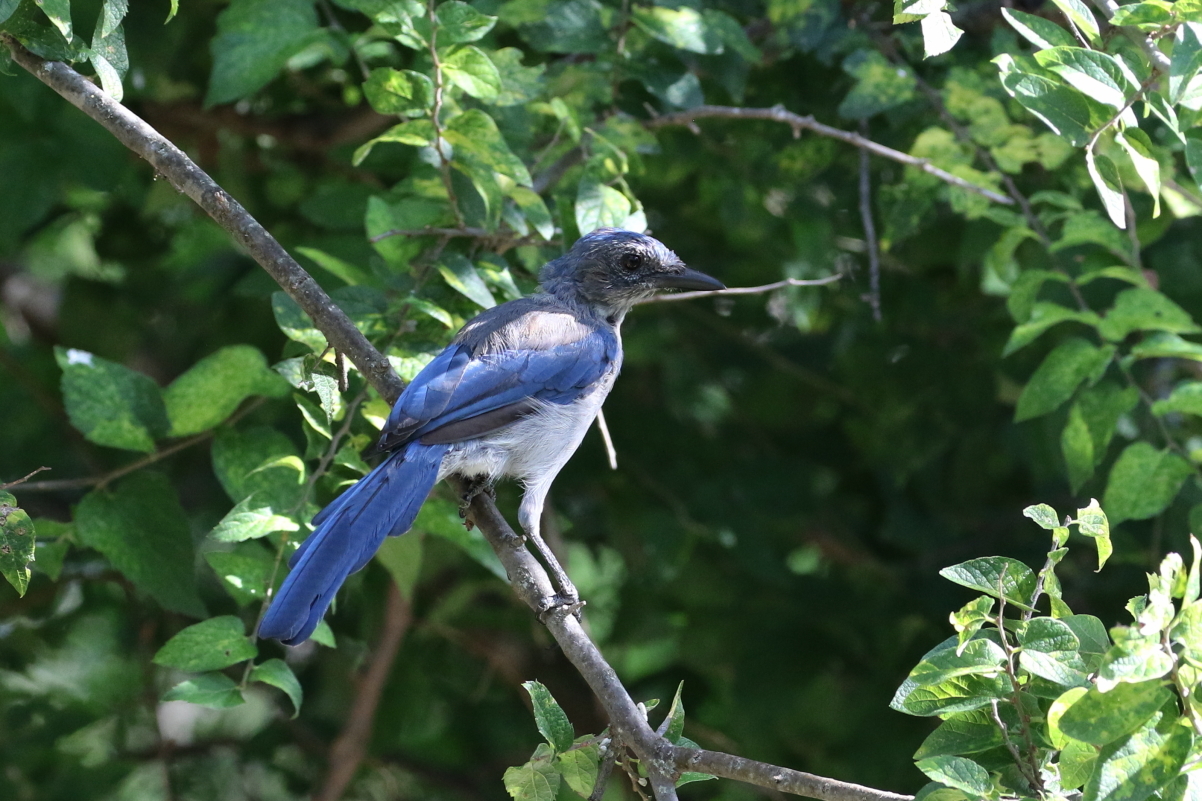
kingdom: Animalia
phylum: Chordata
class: Aves
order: Passeriformes
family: Corvidae
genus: Aphelocoma
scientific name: Aphelocoma woodhouseii
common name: Woodhouse's scrub-jay
